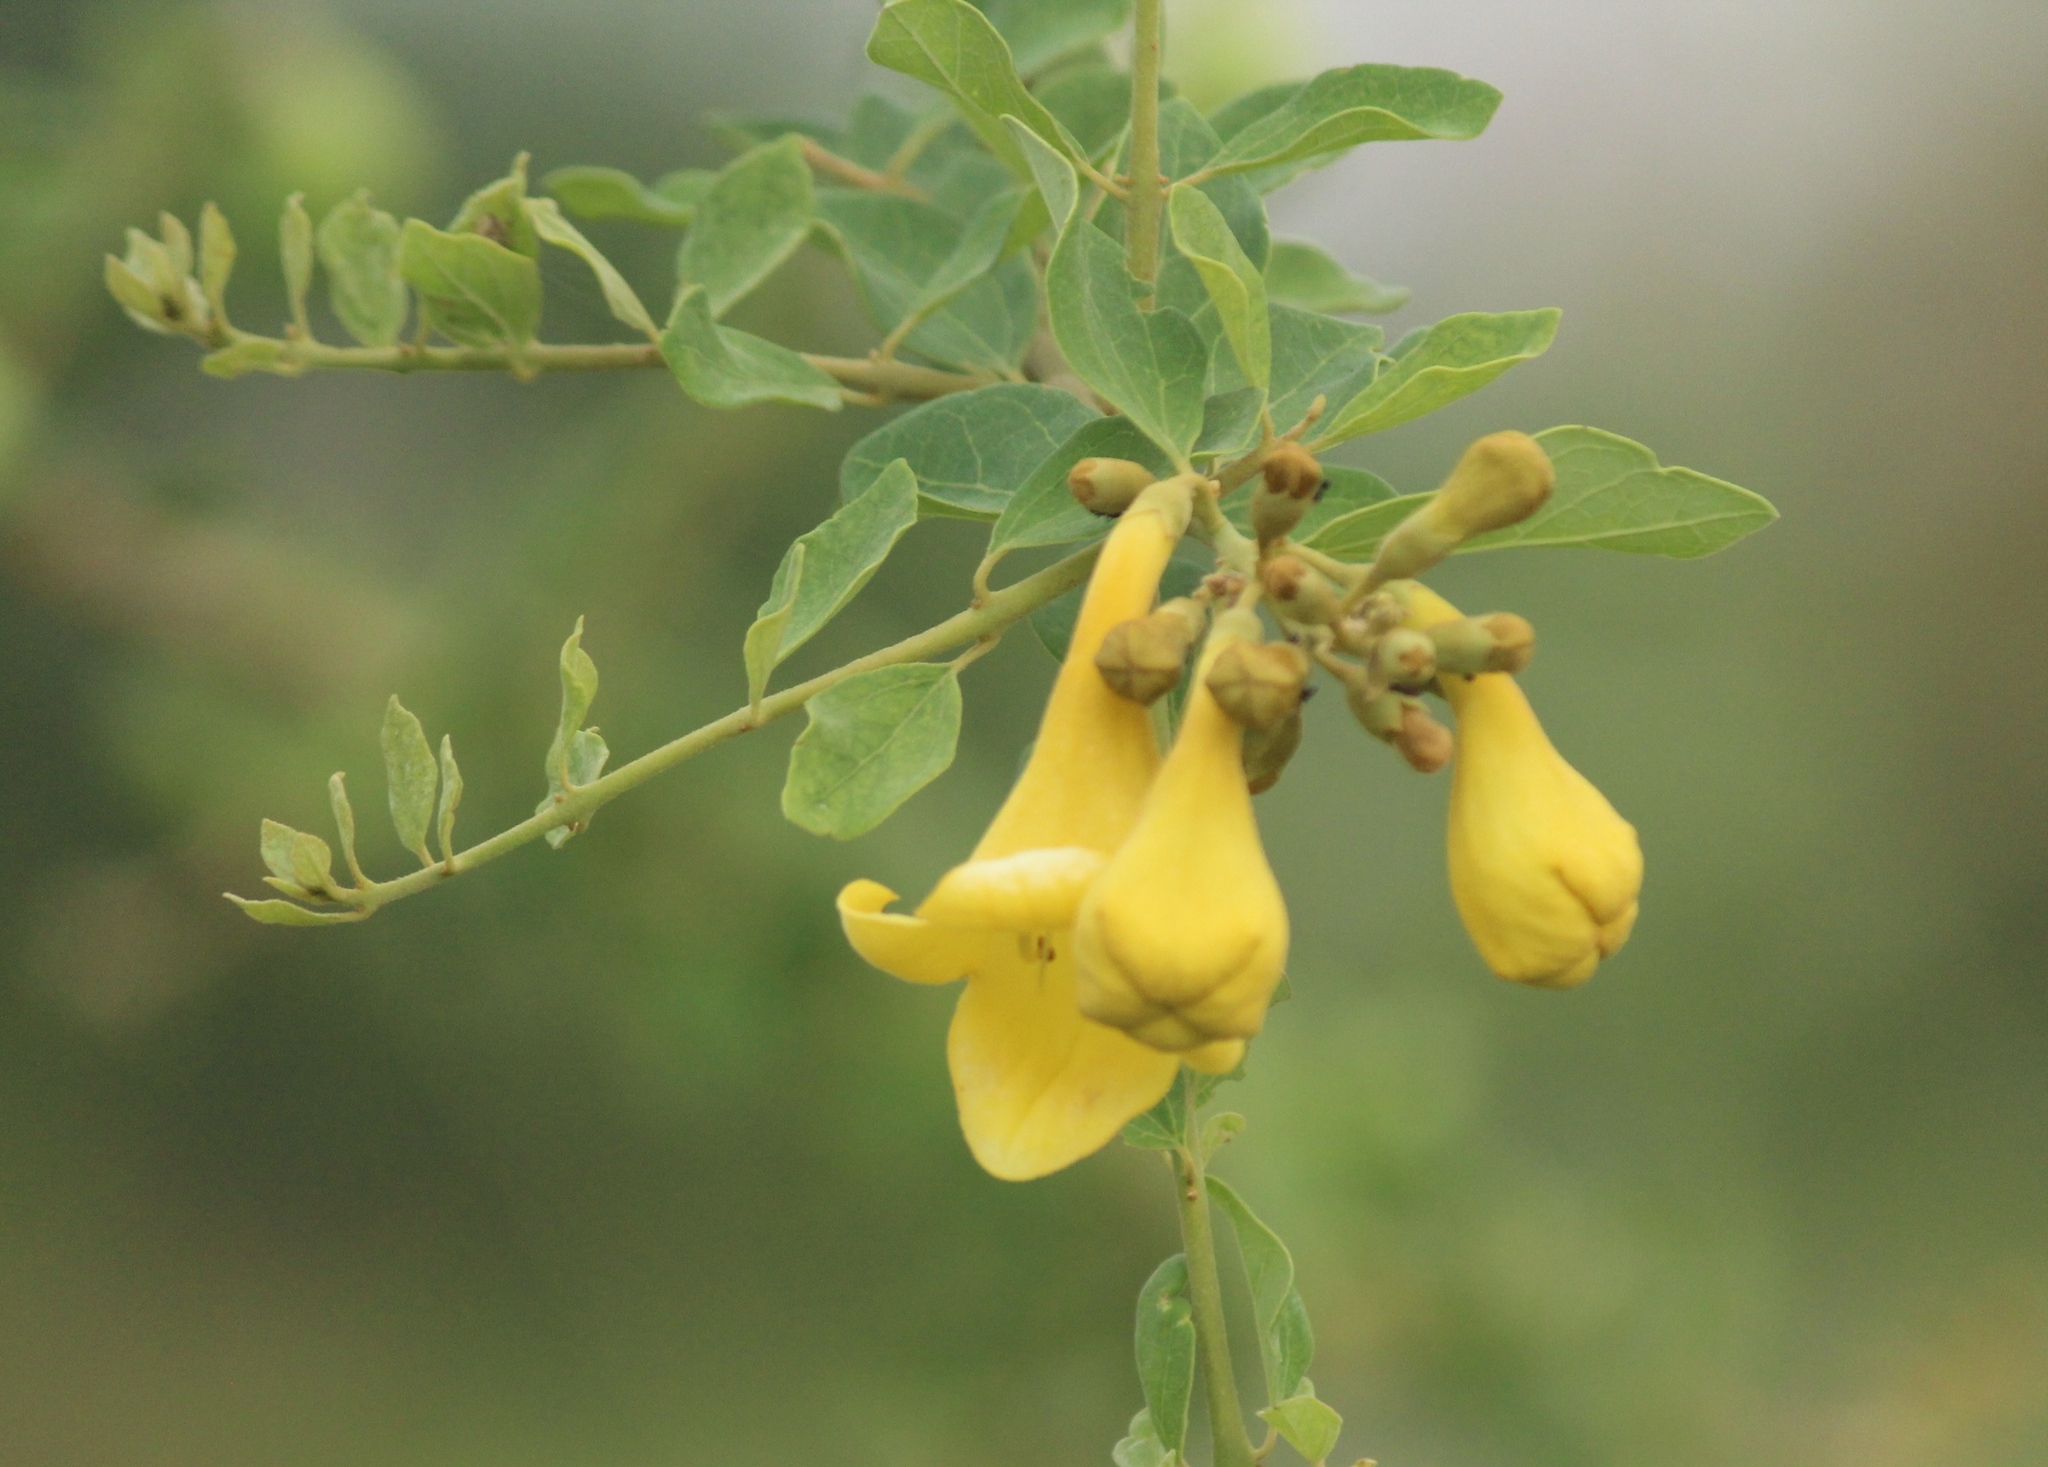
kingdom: Plantae
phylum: Tracheophyta
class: Magnoliopsida
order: Lamiales
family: Lamiaceae
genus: Gmelina
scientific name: Gmelina asiatica
